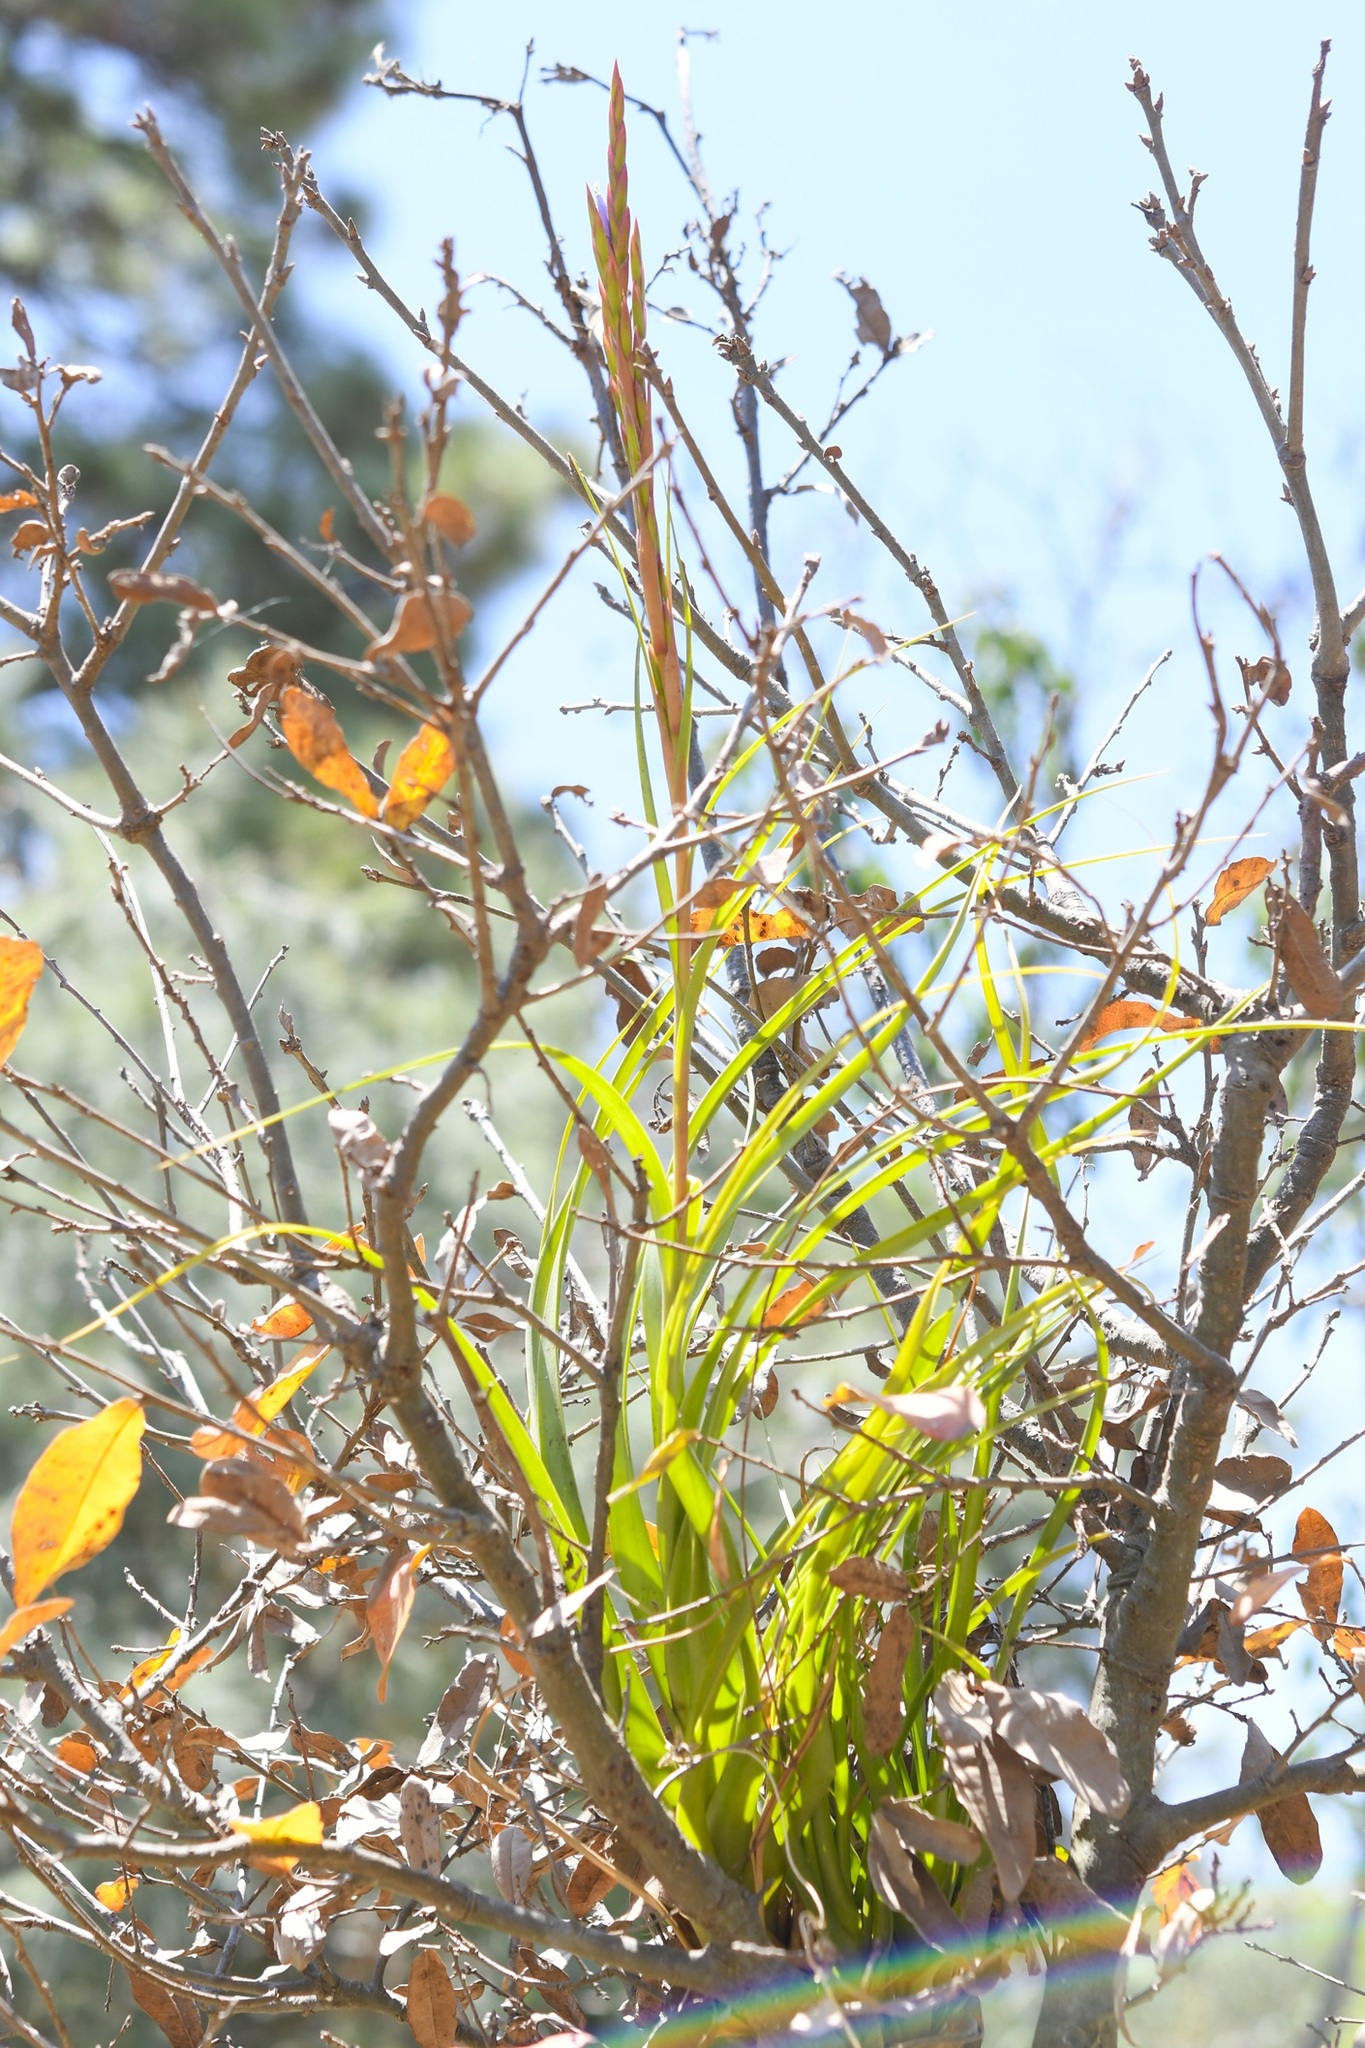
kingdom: Plantae
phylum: Tracheophyta
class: Liliopsida
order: Poales
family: Bromeliaceae
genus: Tillandsia
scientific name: Tillandsia polystachia
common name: Airplant
